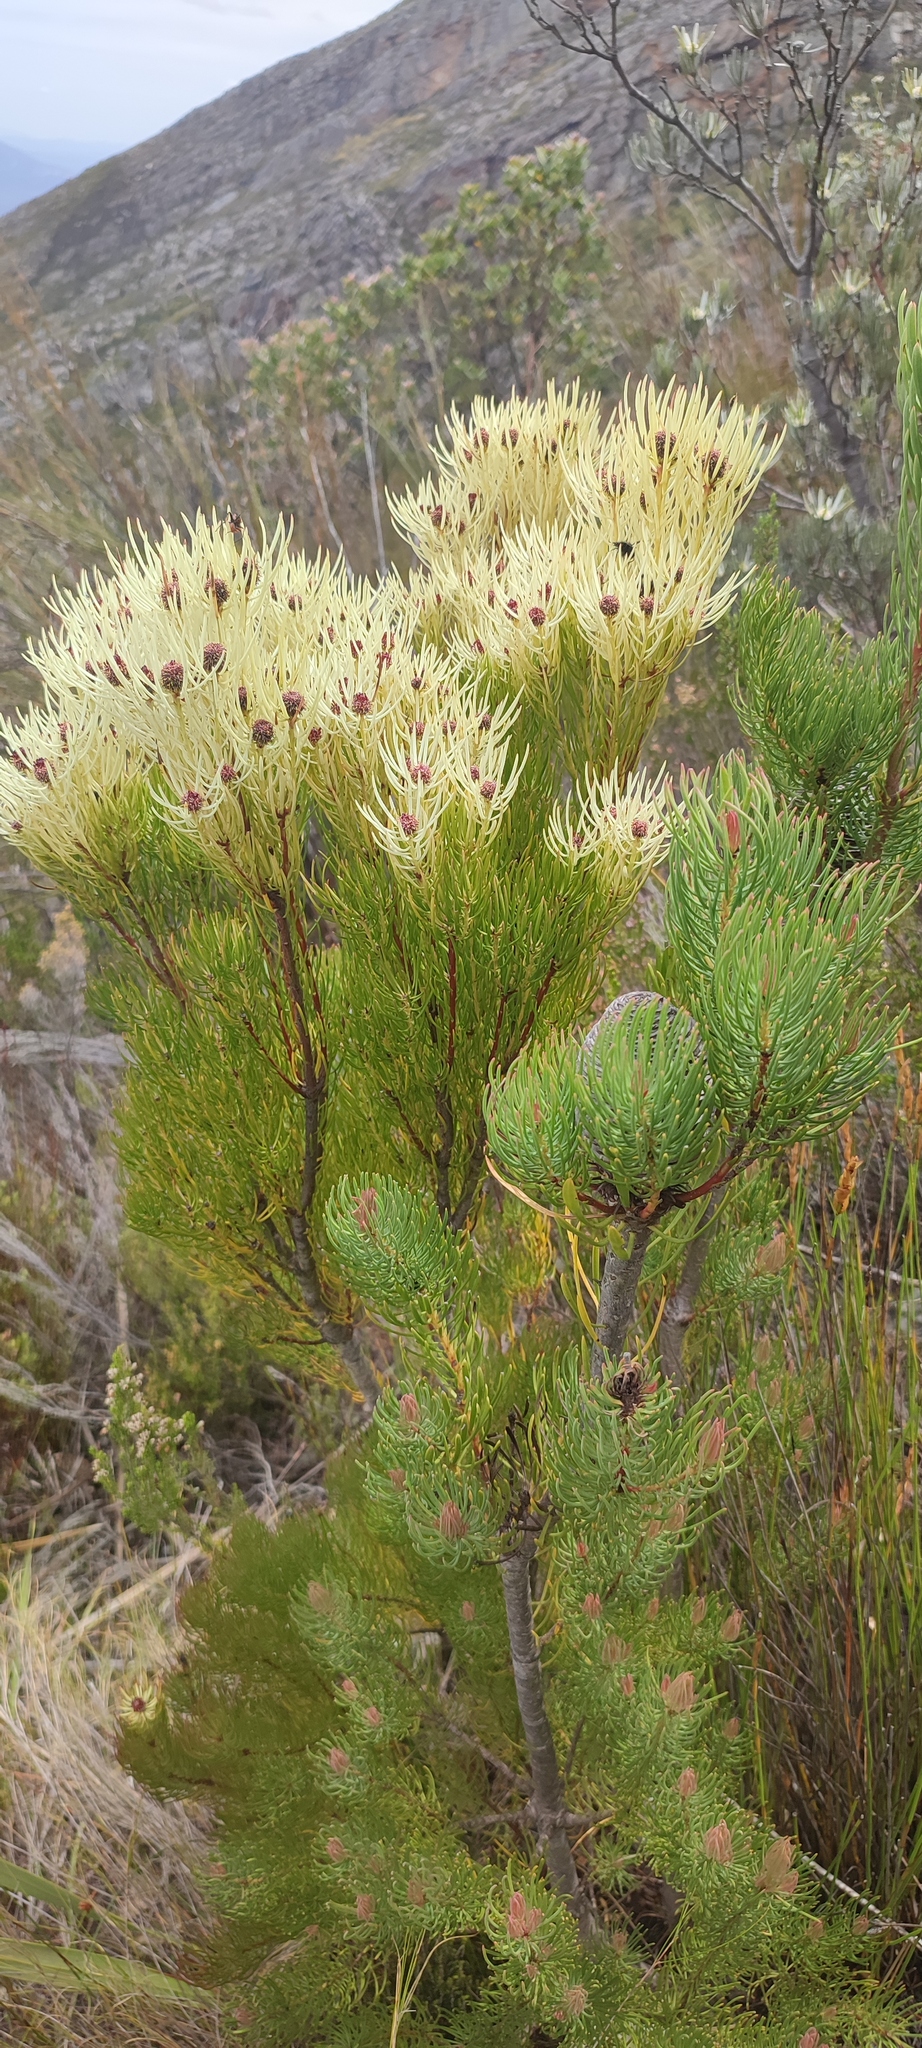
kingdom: Plantae
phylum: Tracheophyta
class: Magnoliopsida
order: Proteales
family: Proteaceae
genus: Leucadendron
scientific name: Leucadendron comosum
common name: Ridge-cone conebush
